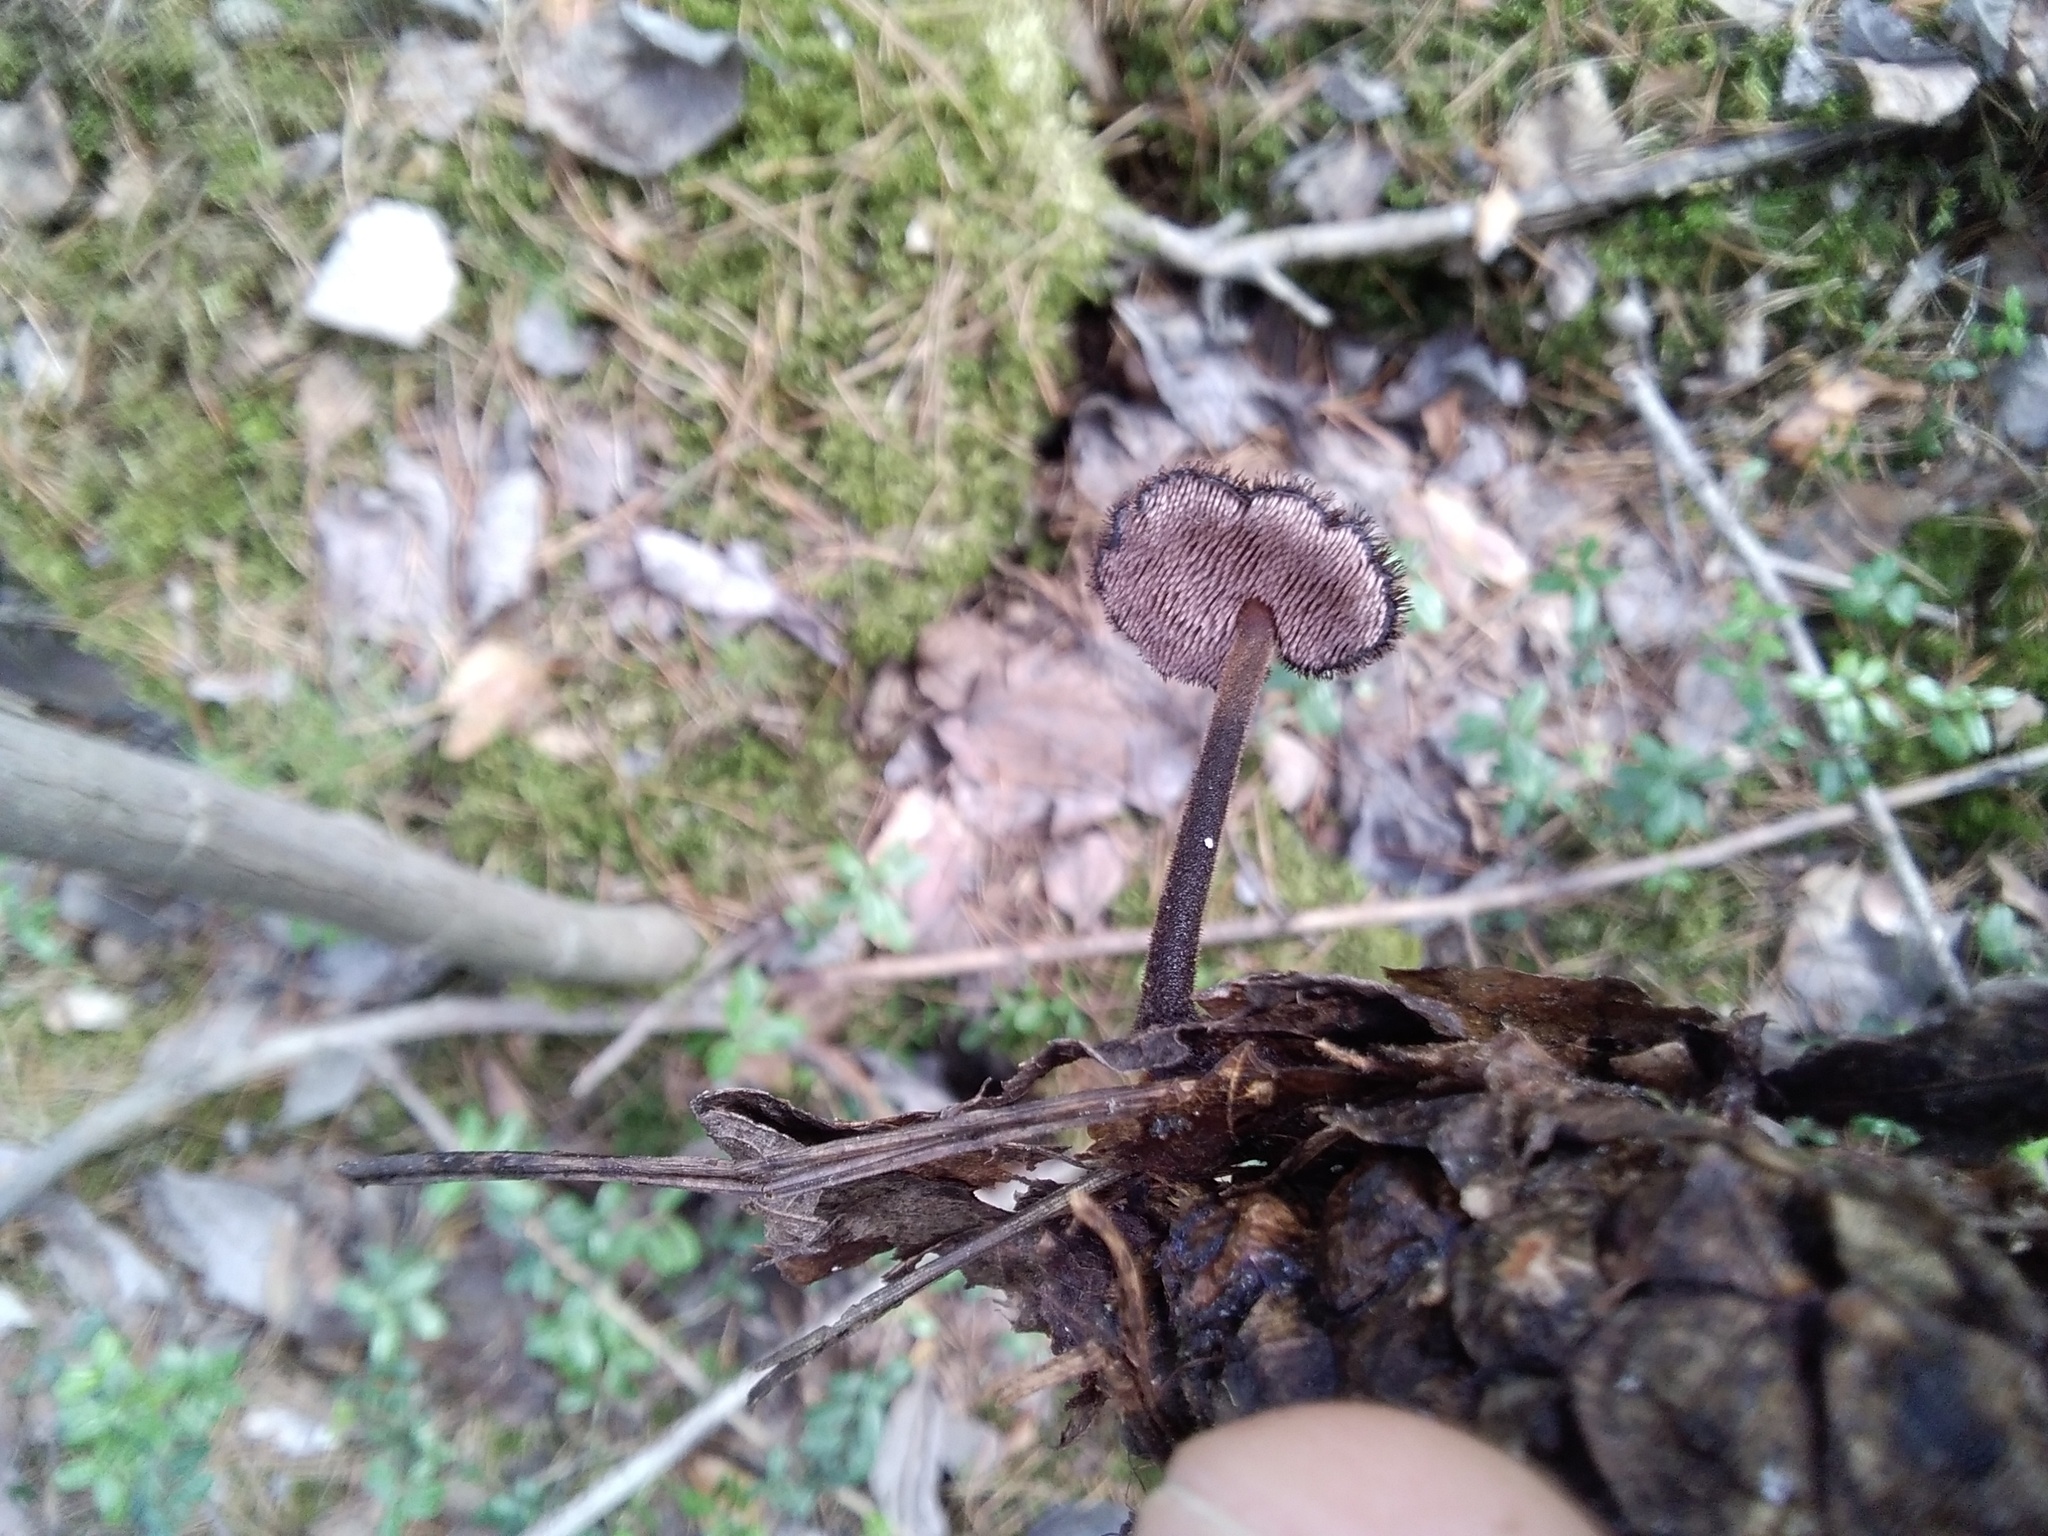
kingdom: Fungi
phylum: Basidiomycota
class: Agaricomycetes
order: Russulales
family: Auriscalpiaceae
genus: Auriscalpium
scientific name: Auriscalpium vulgare
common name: Earpick fungus
